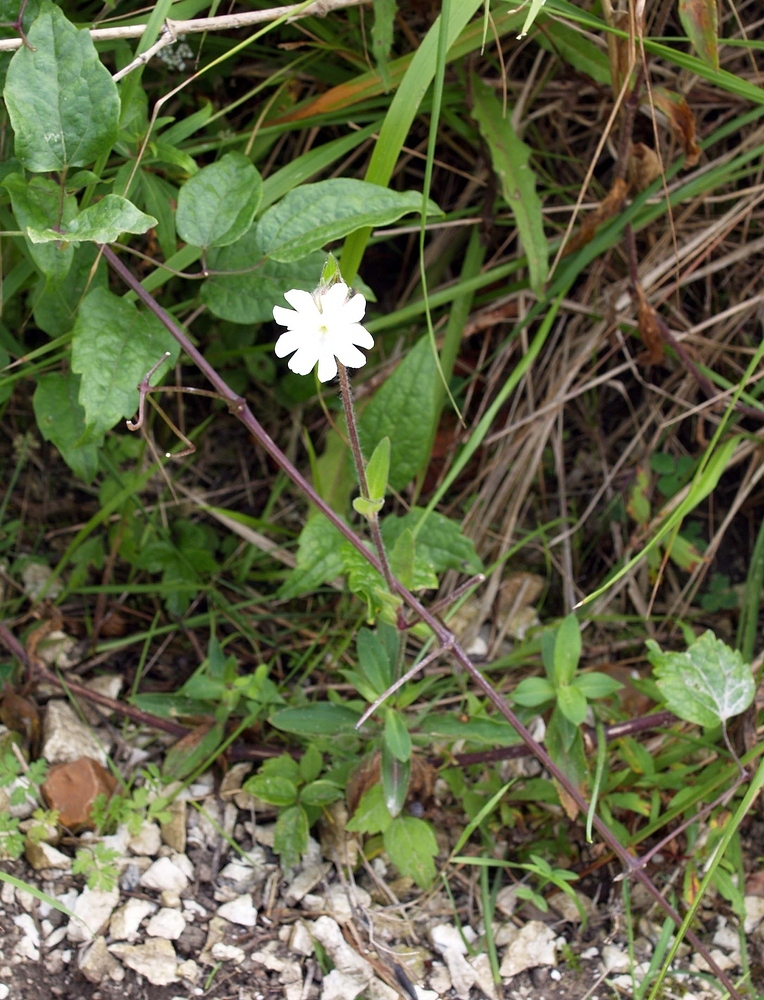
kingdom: Plantae
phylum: Tracheophyta
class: Magnoliopsida
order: Caryophyllales
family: Caryophyllaceae
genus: Silene
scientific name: Silene latifolia
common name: White campion
